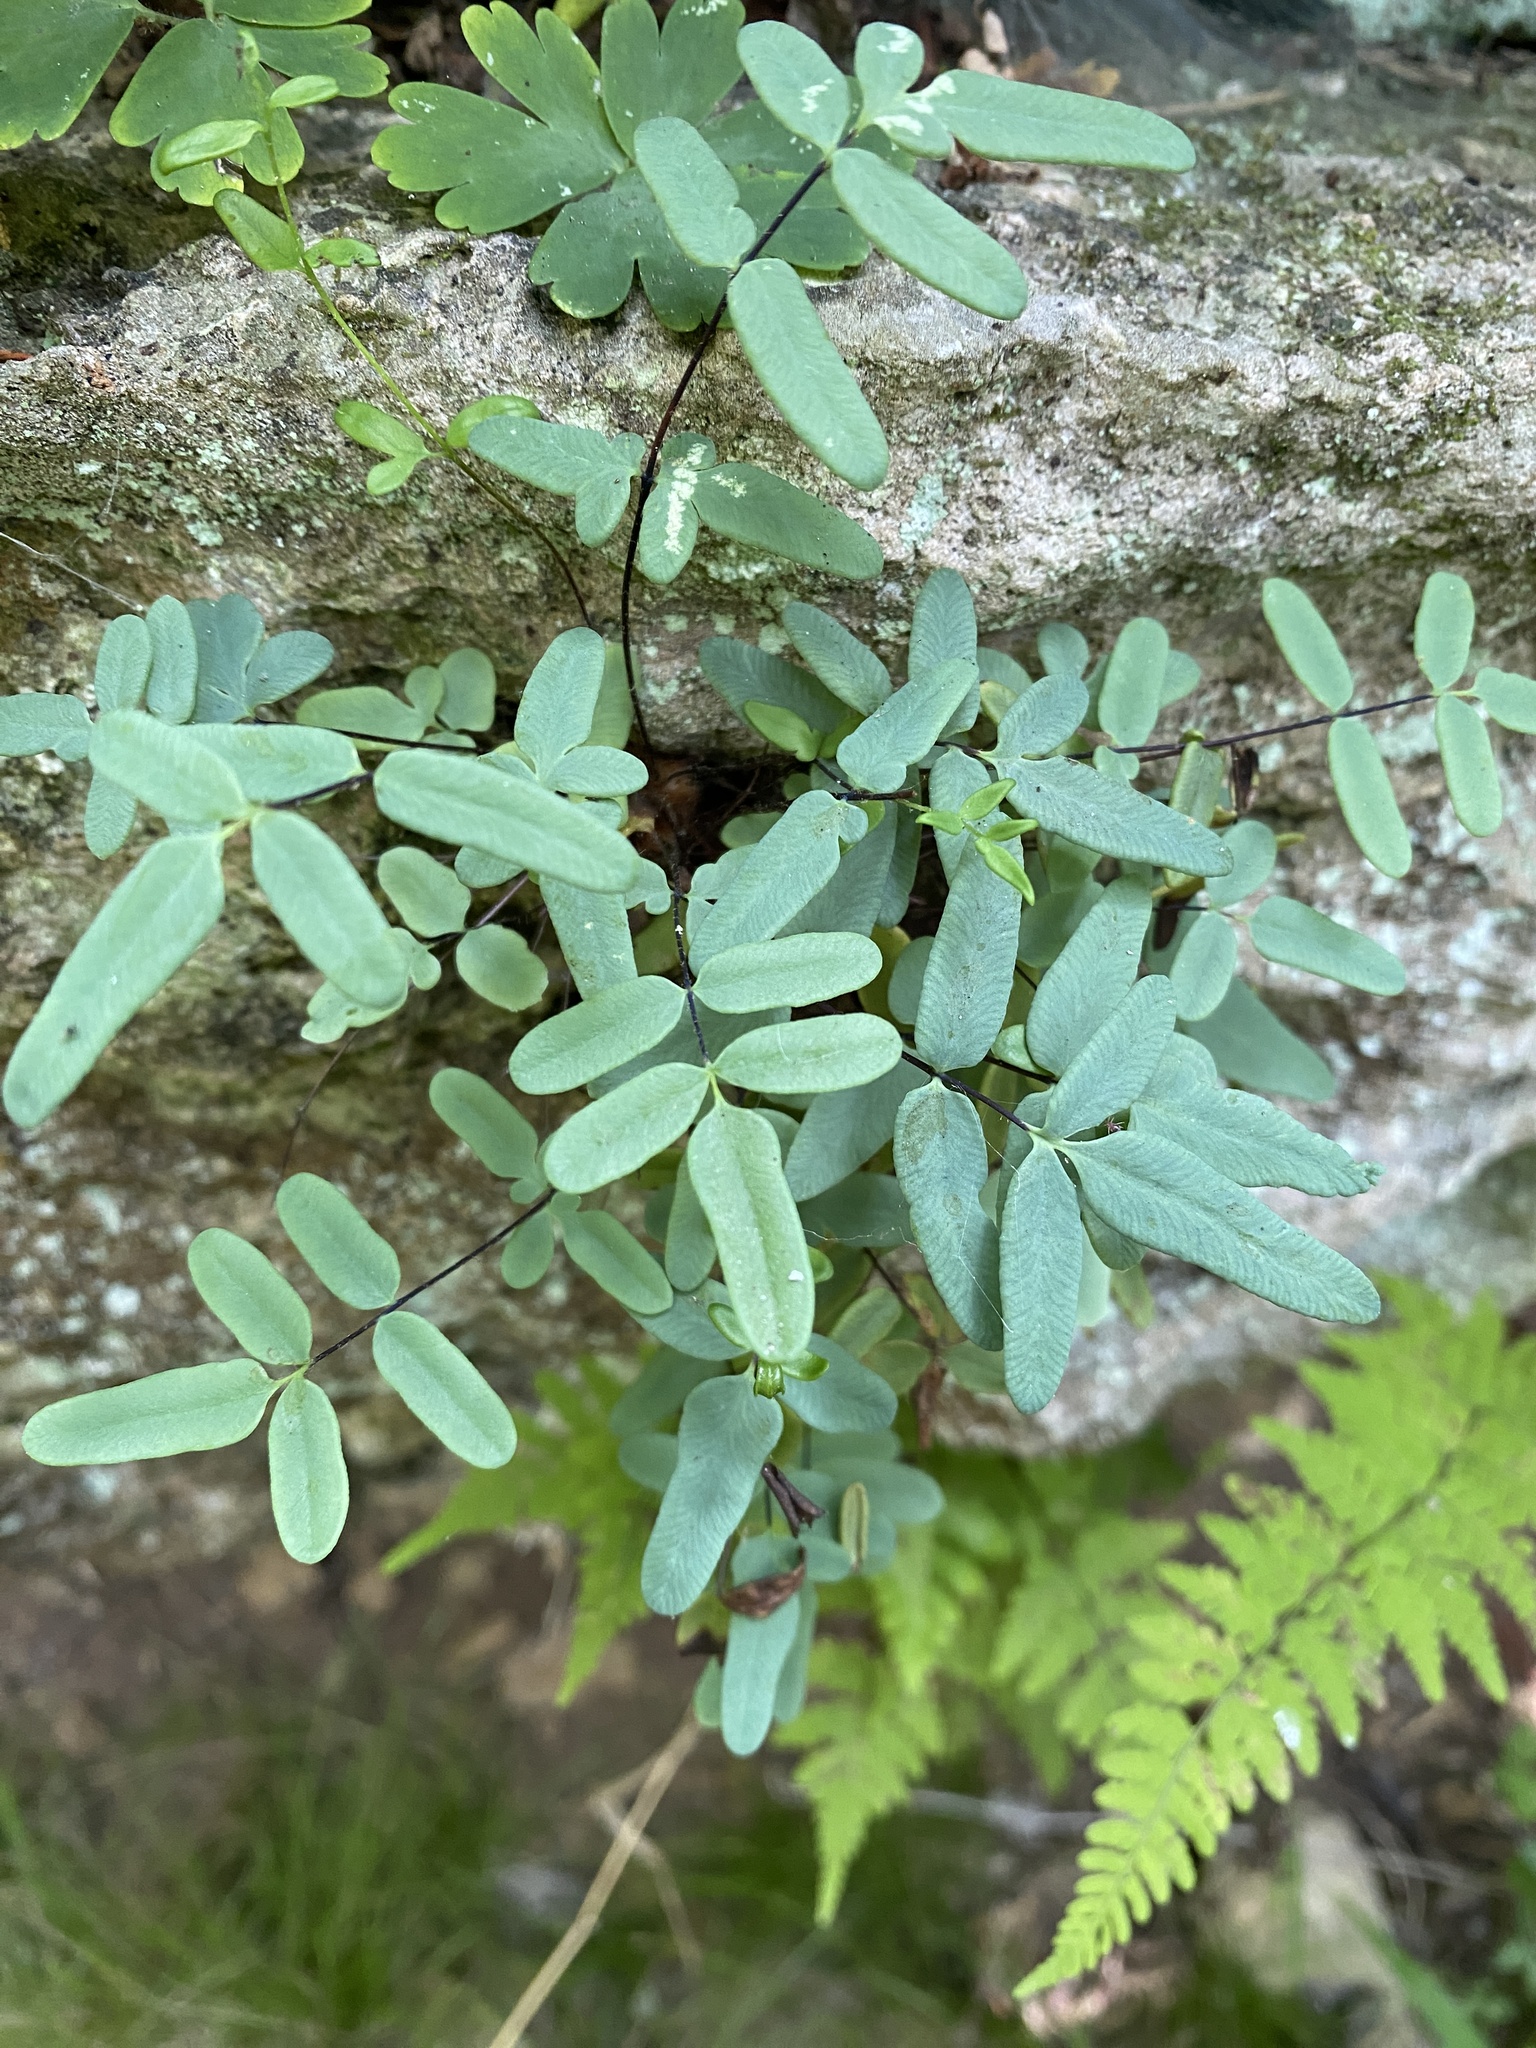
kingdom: Plantae
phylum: Tracheophyta
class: Polypodiopsida
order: Polypodiales
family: Pteridaceae
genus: Pellaea
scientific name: Pellaea glabella
